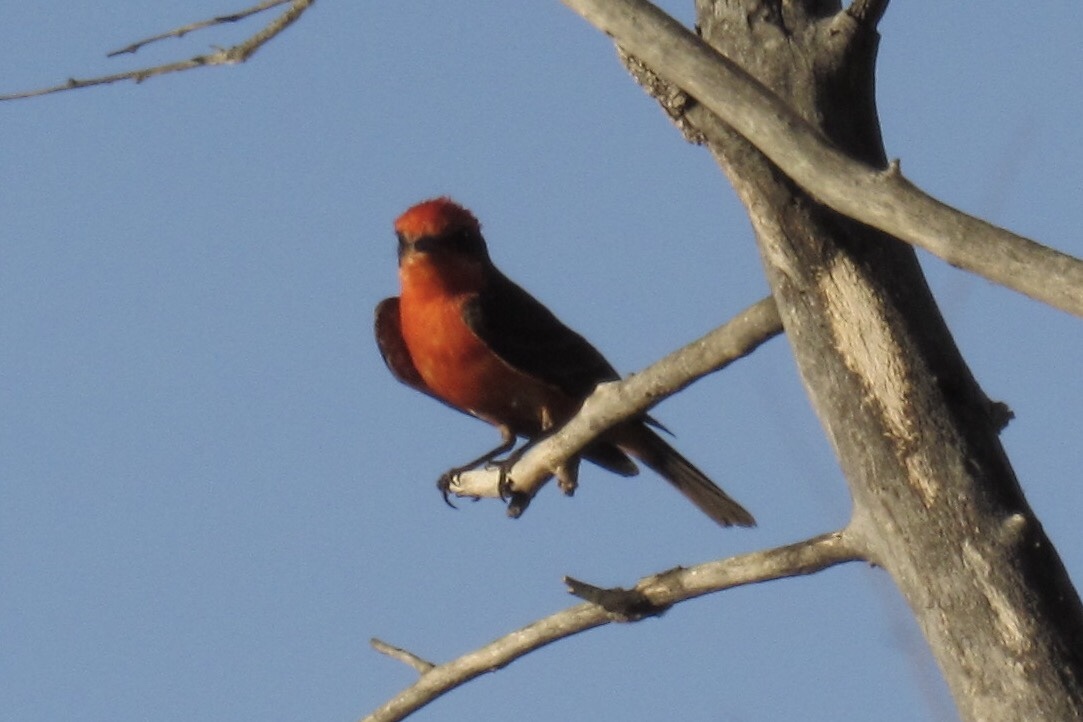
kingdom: Animalia
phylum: Chordata
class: Aves
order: Passeriformes
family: Tyrannidae
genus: Pyrocephalus
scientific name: Pyrocephalus rubinus
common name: Vermilion flycatcher
